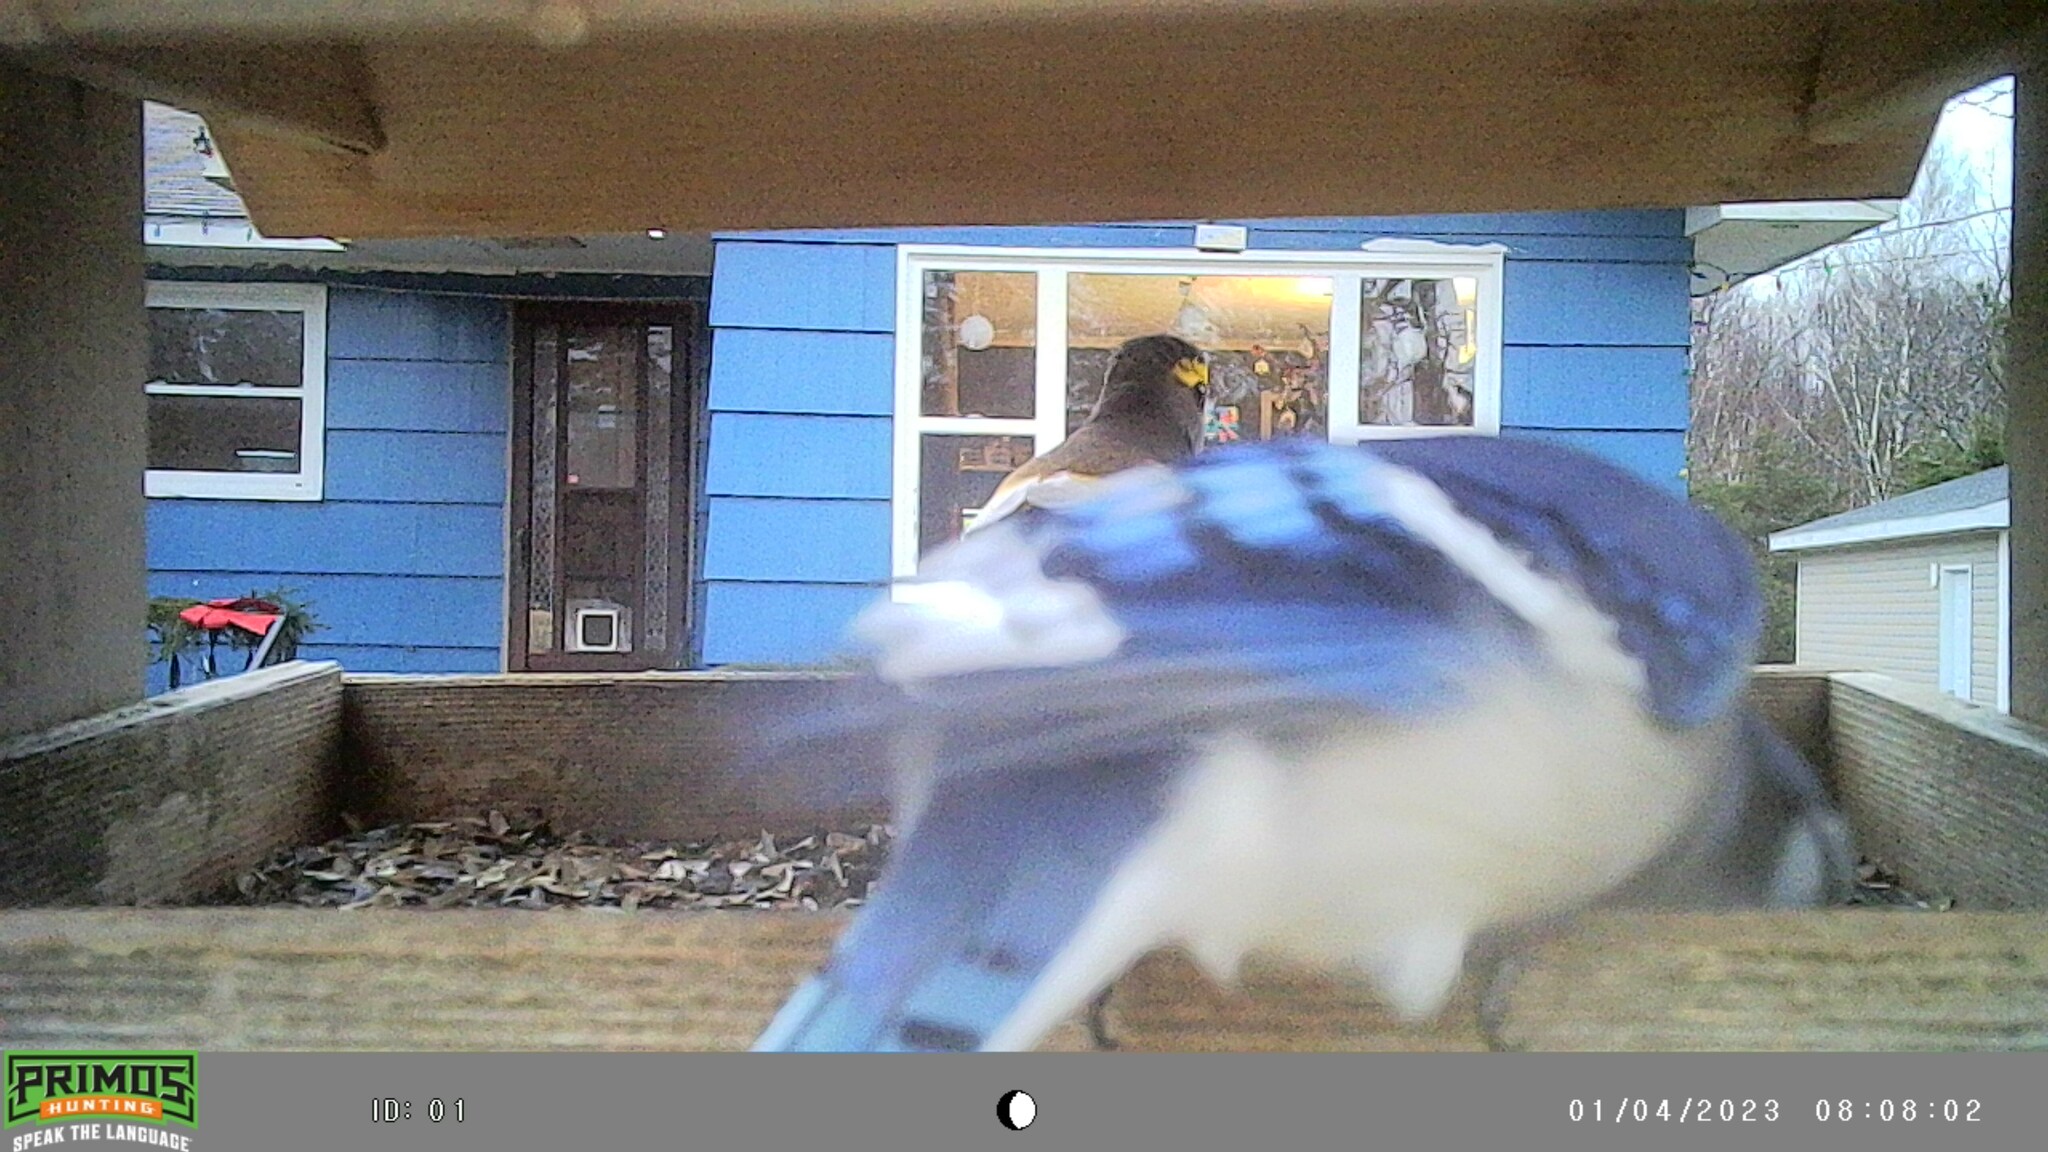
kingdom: Animalia
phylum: Chordata
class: Aves
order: Passeriformes
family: Corvidae
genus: Cyanocitta
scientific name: Cyanocitta cristata
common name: Blue jay
